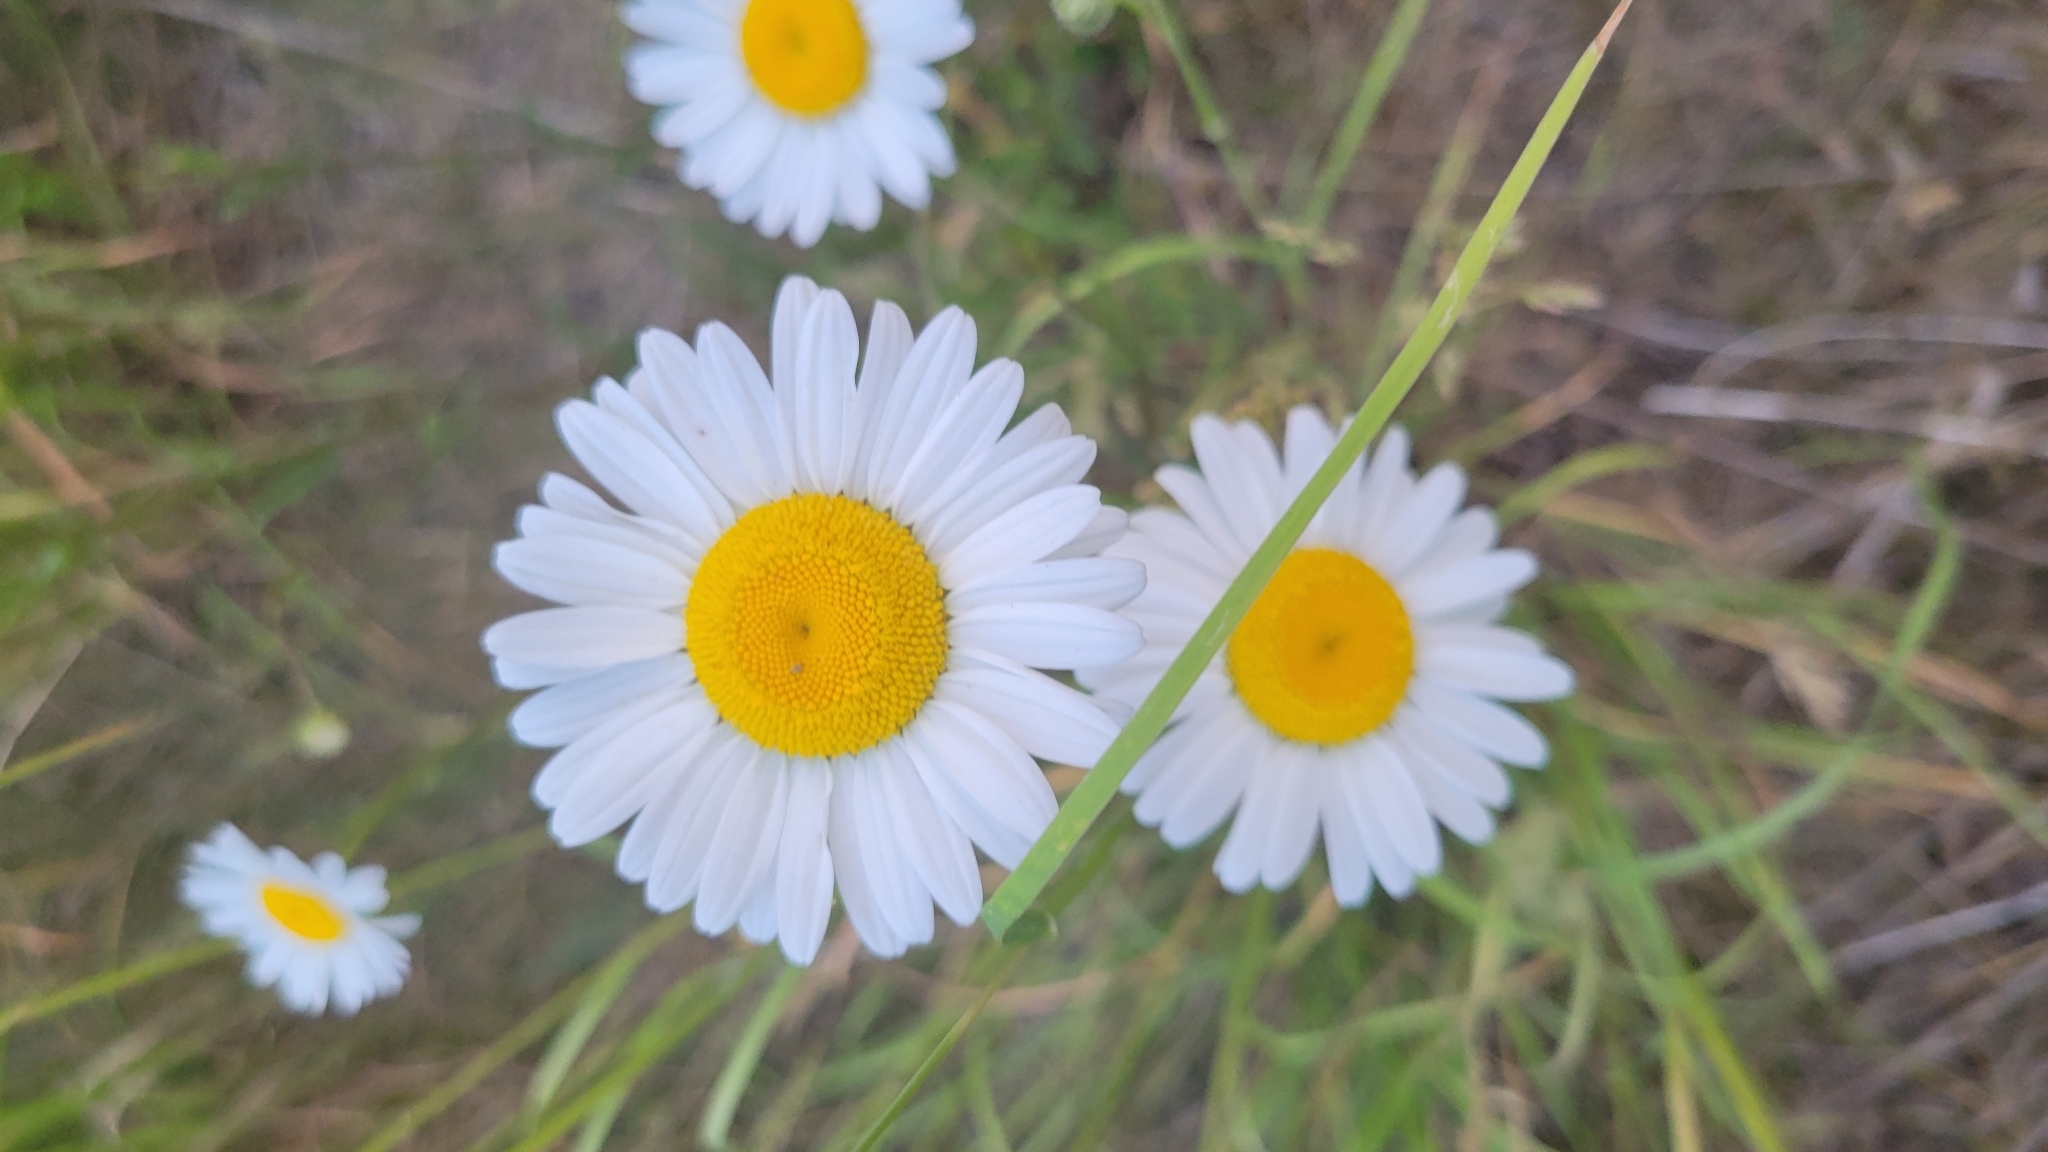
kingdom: Plantae
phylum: Tracheophyta
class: Magnoliopsida
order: Asterales
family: Asteraceae
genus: Leucanthemum
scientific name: Leucanthemum vulgare
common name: Oxeye daisy
